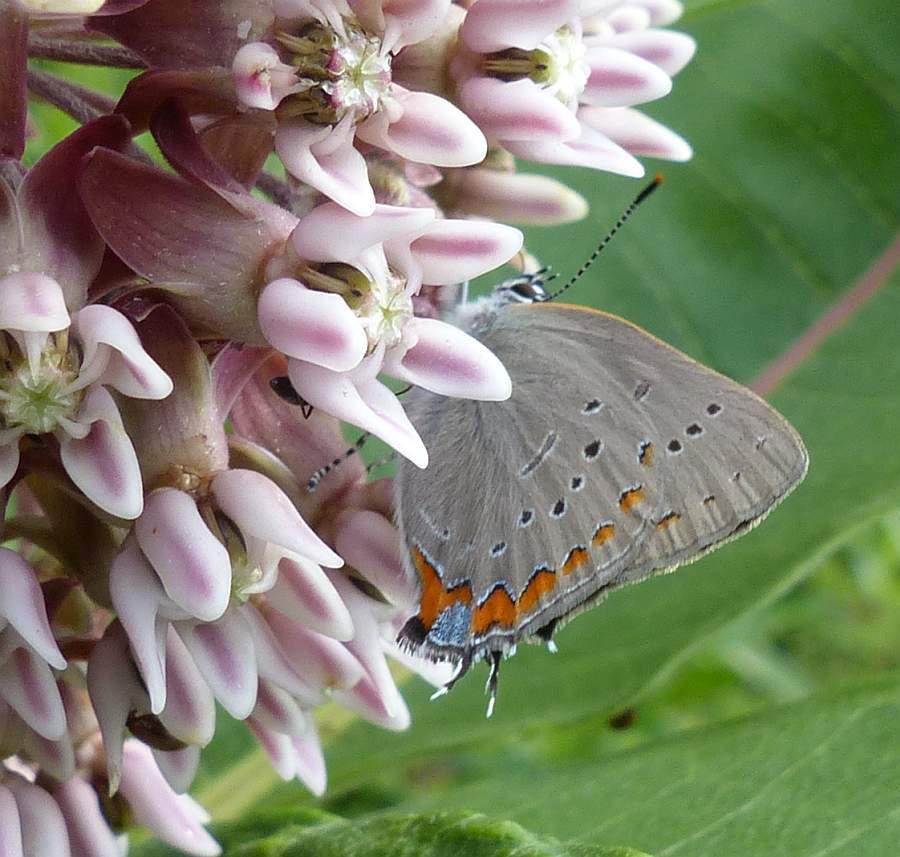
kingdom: Animalia
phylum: Arthropoda
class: Insecta
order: Lepidoptera
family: Lycaenidae
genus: Strymon
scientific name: Strymon acadica
